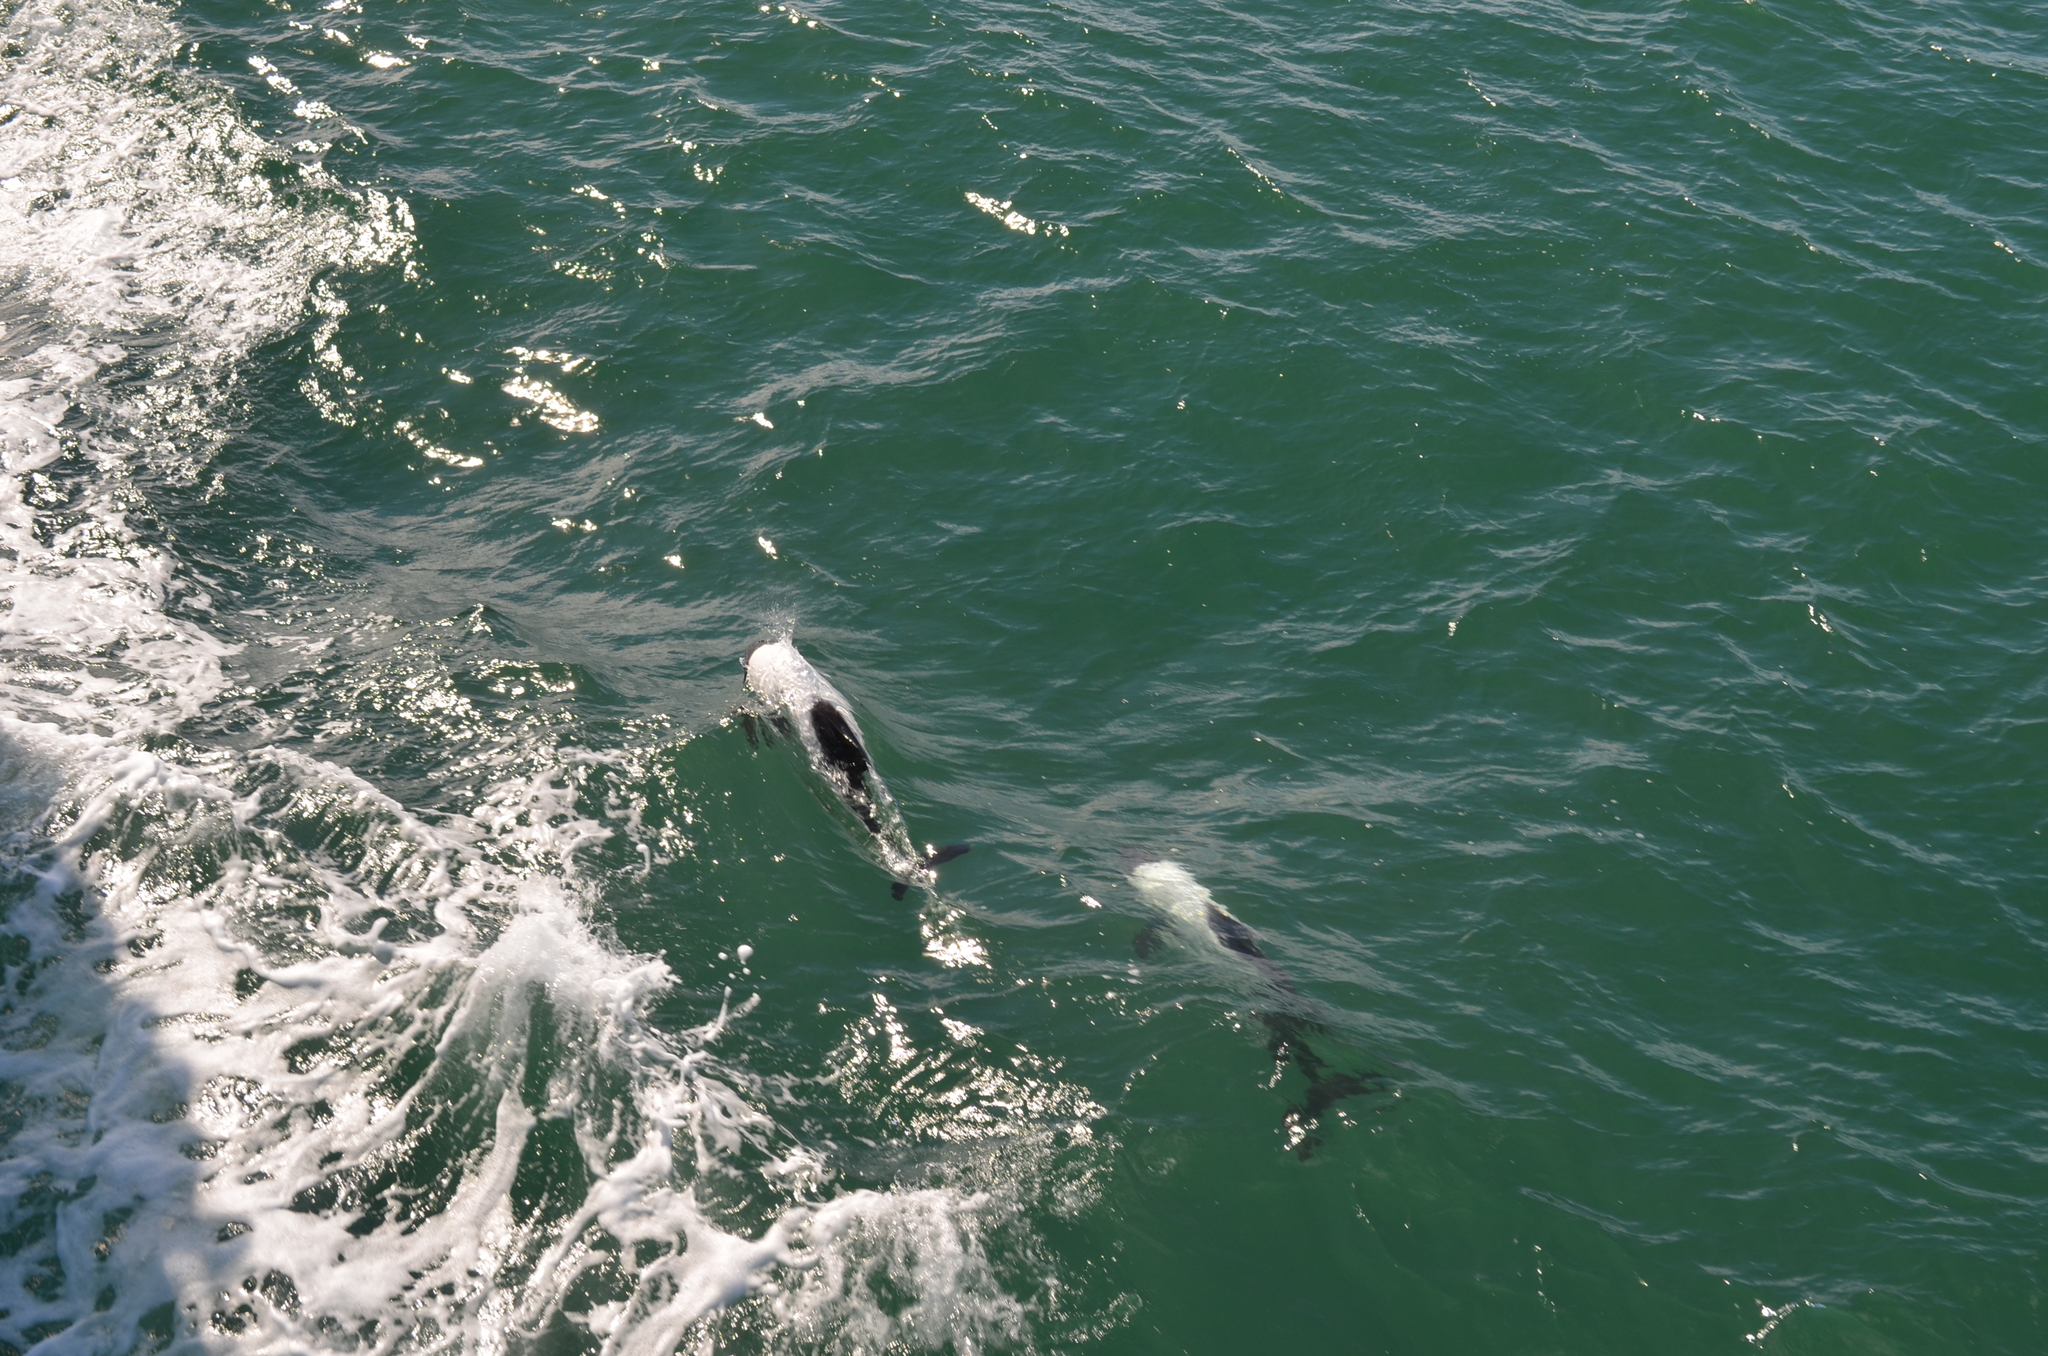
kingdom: Animalia
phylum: Chordata
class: Mammalia
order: Cetacea
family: Delphinidae
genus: Cephalorhynchus
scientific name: Cephalorhynchus commersonii
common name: Commerson's dolphin
